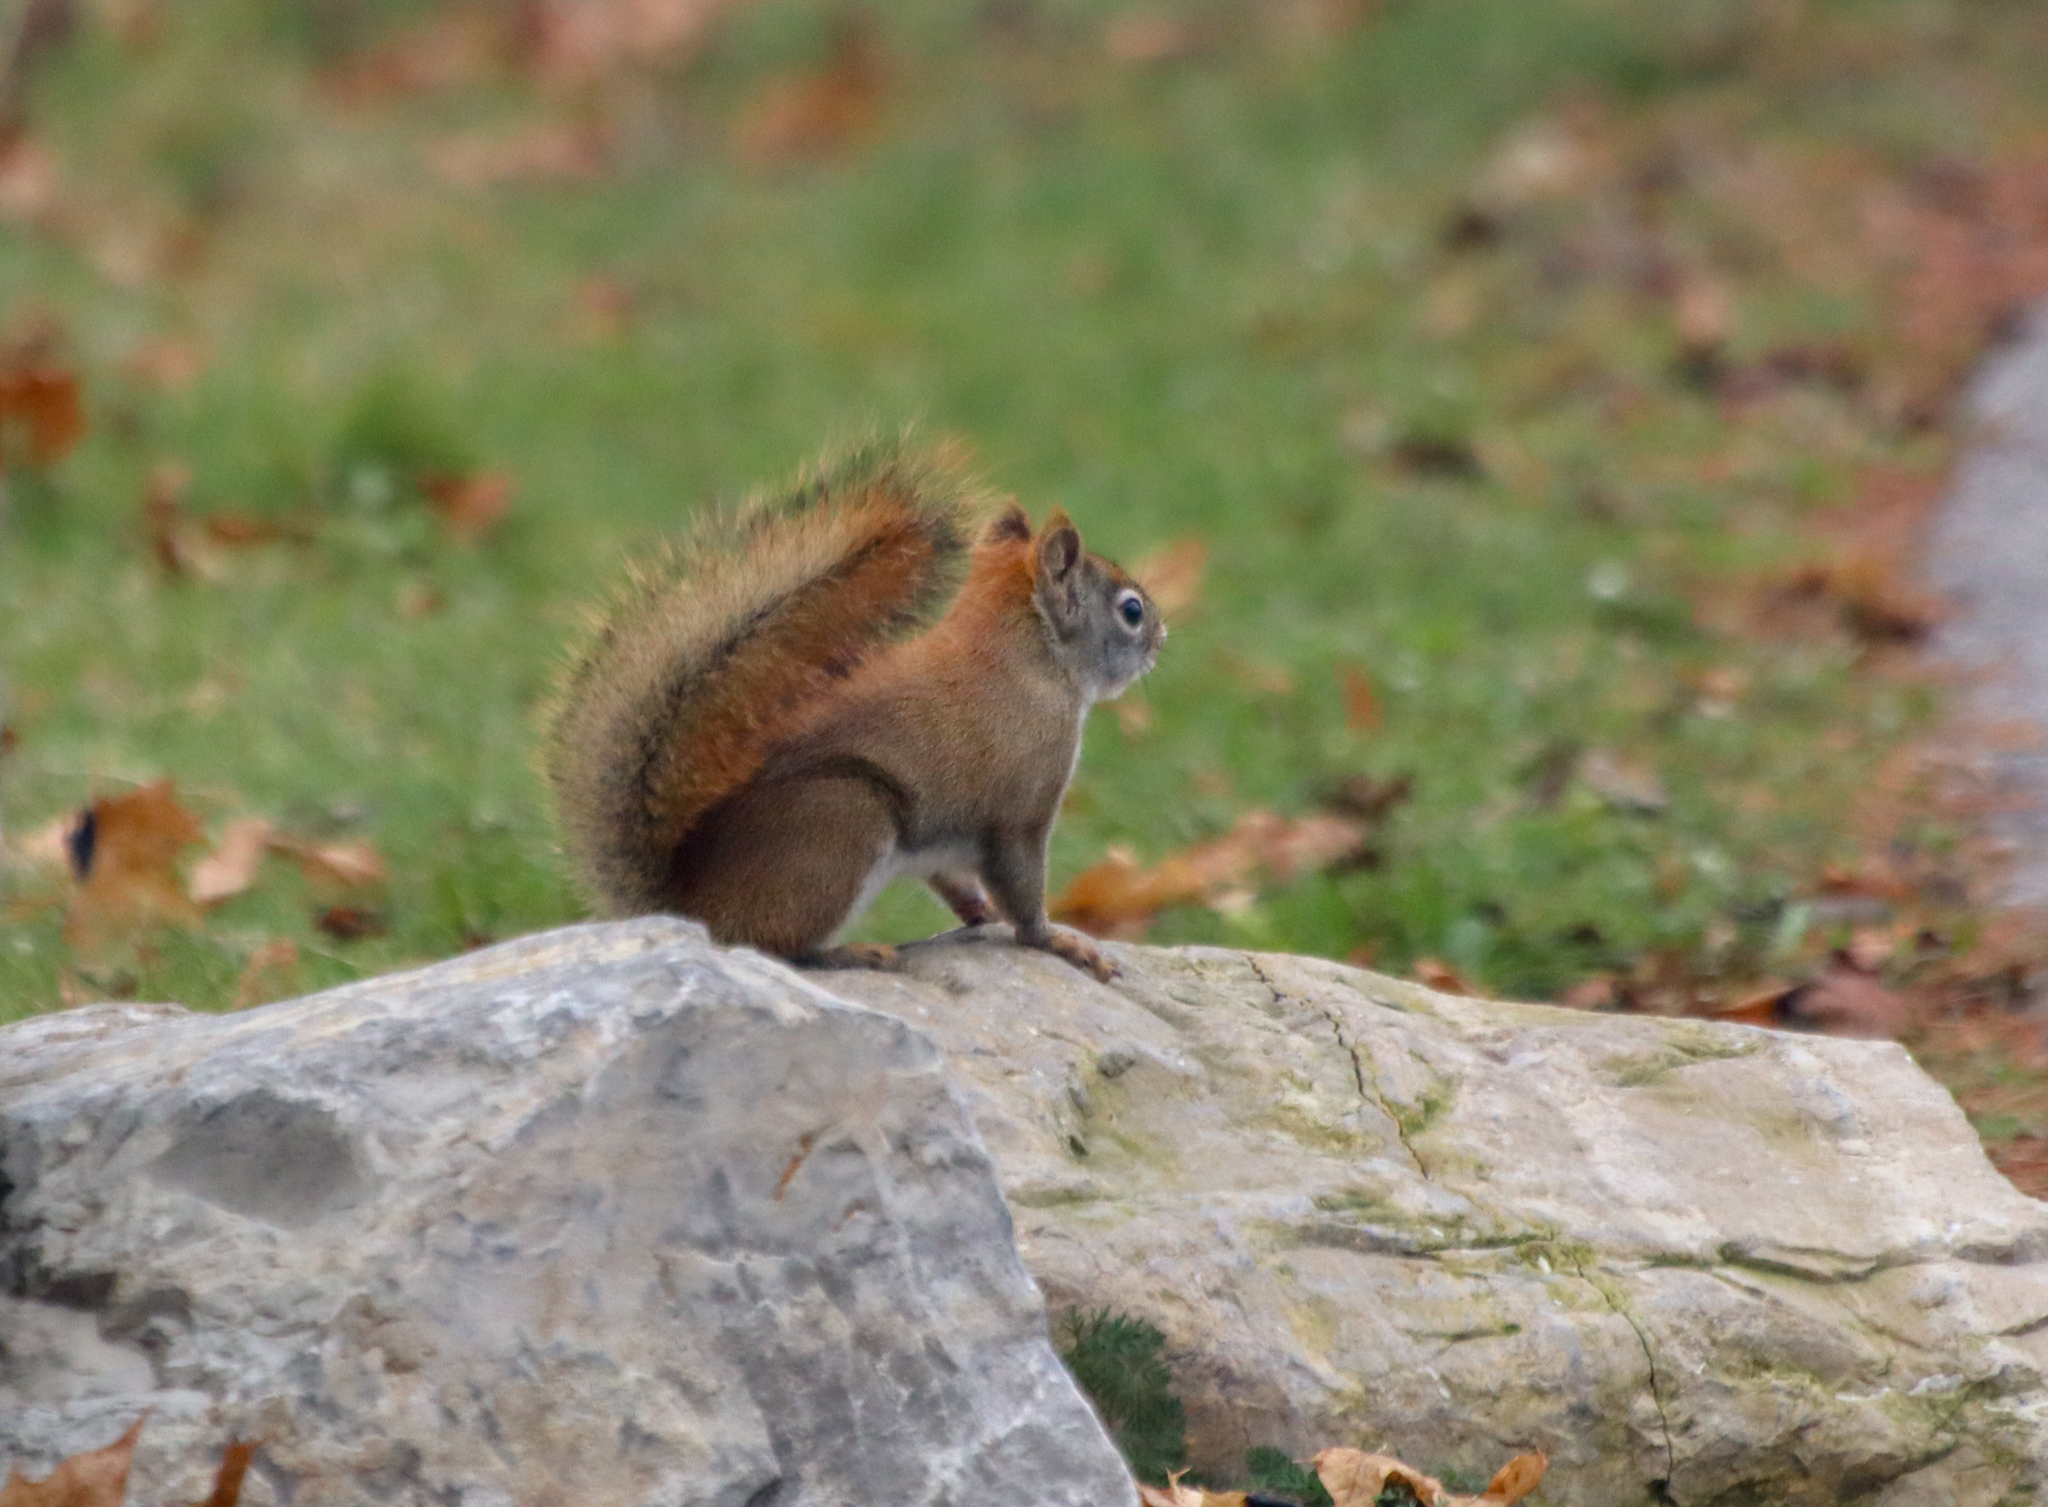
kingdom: Animalia
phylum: Chordata
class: Mammalia
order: Rodentia
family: Sciuridae
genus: Tamiasciurus
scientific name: Tamiasciurus hudsonicus
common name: Red squirrel
